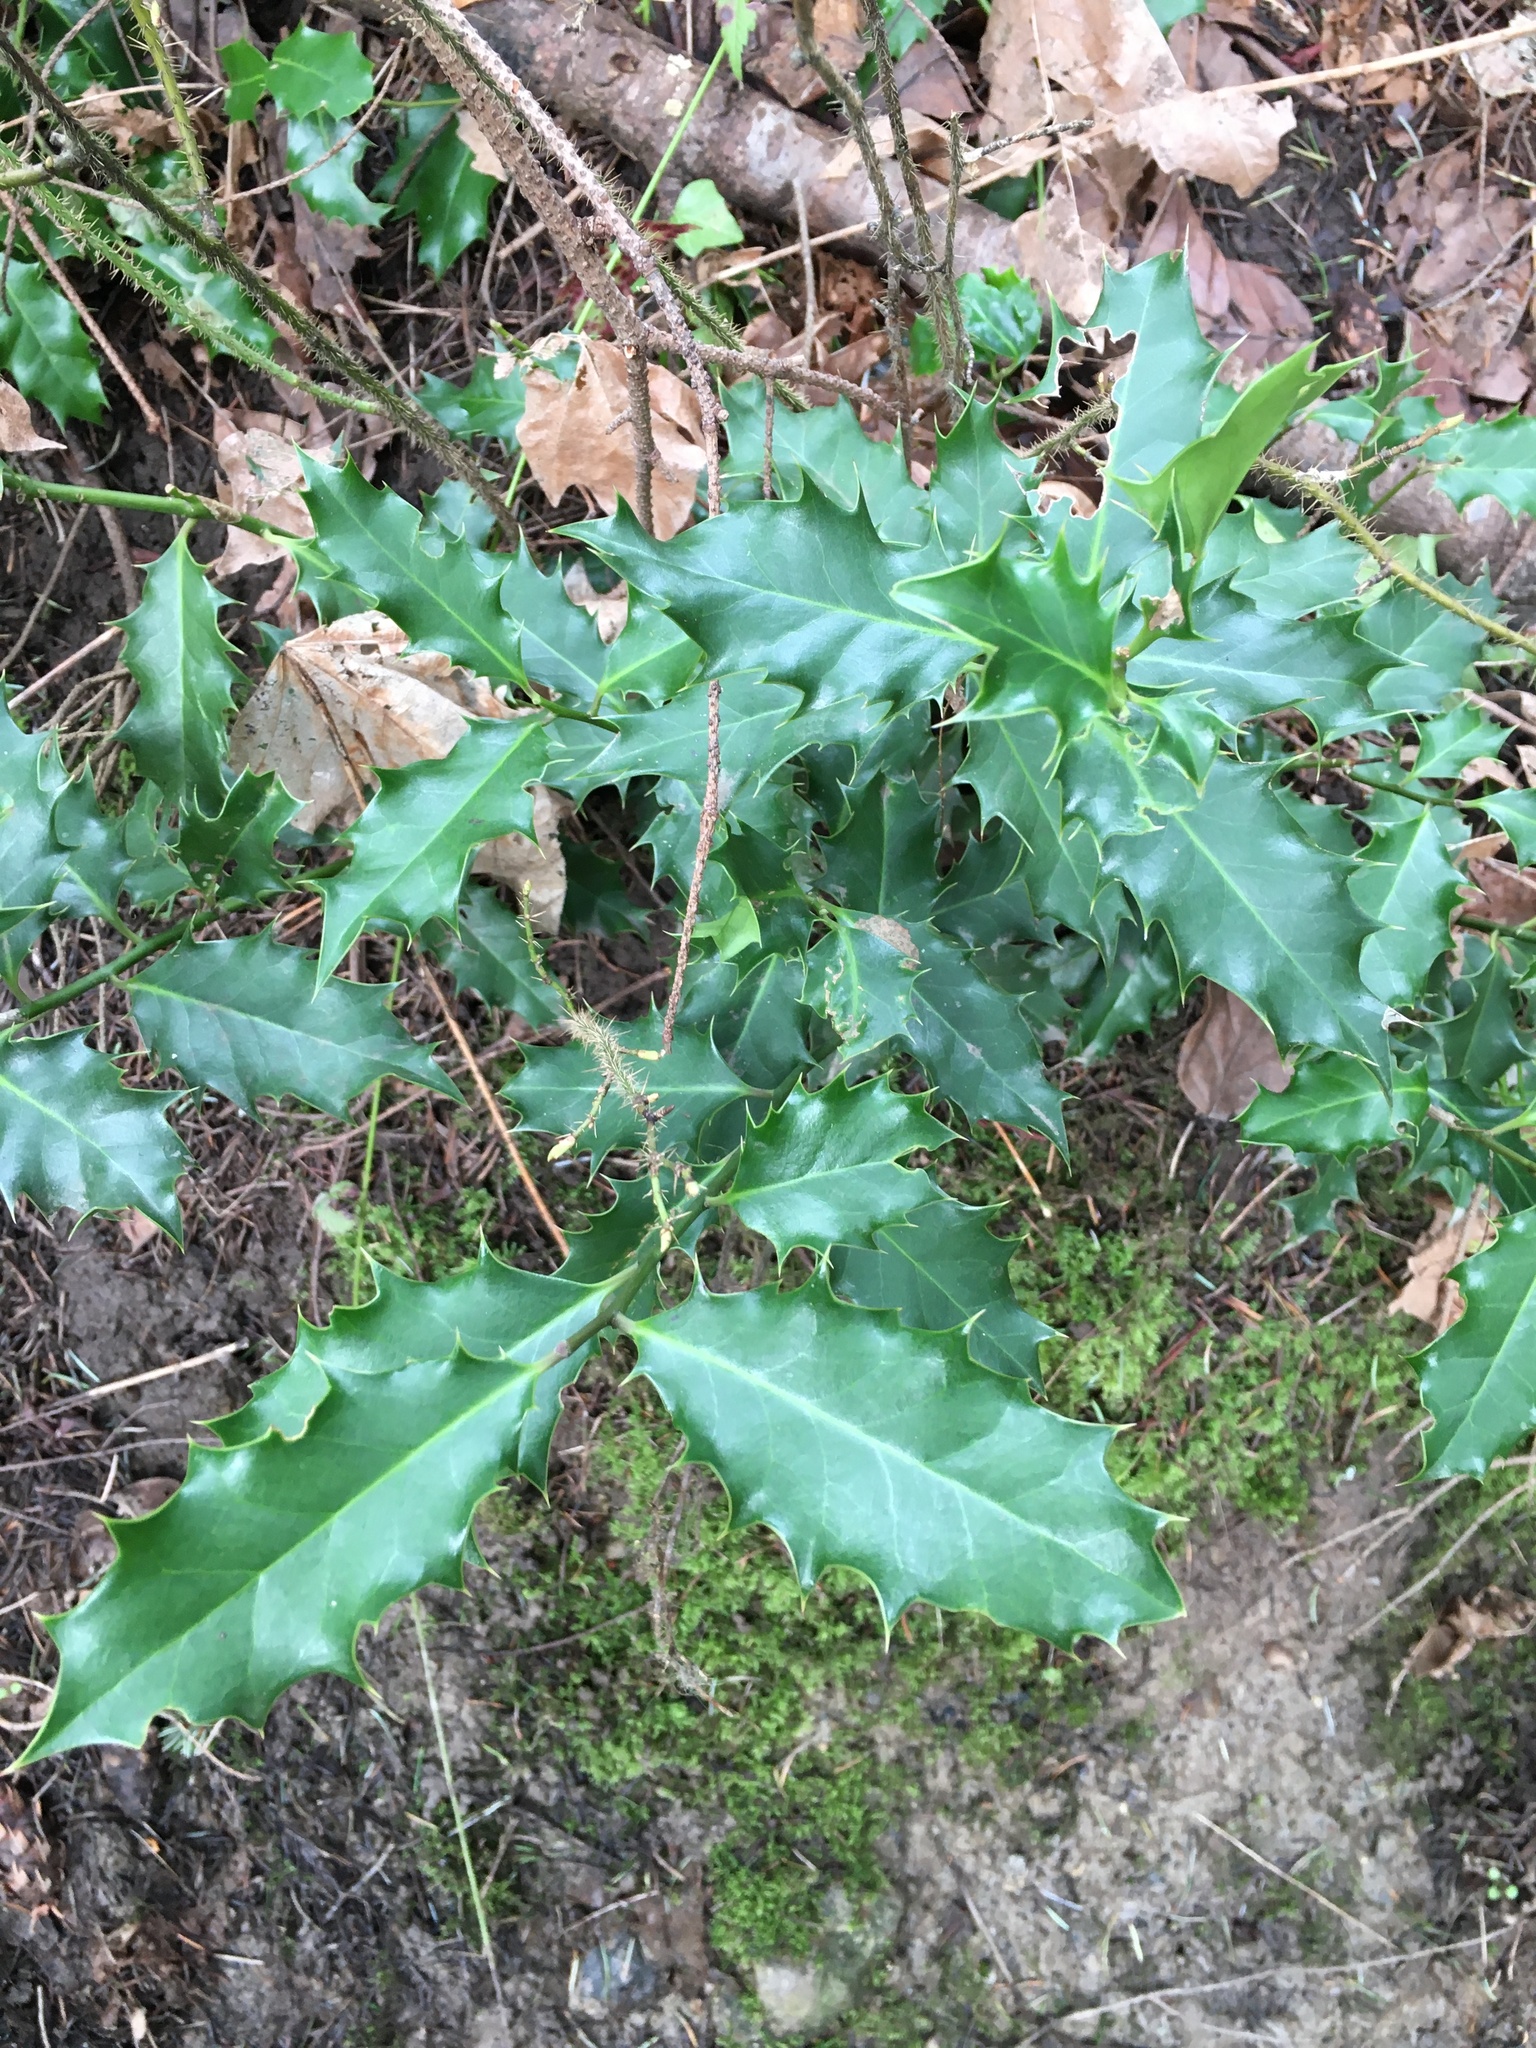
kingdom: Plantae
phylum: Tracheophyta
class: Magnoliopsida
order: Aquifoliales
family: Aquifoliaceae
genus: Ilex
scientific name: Ilex aquifolium
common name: English holly
